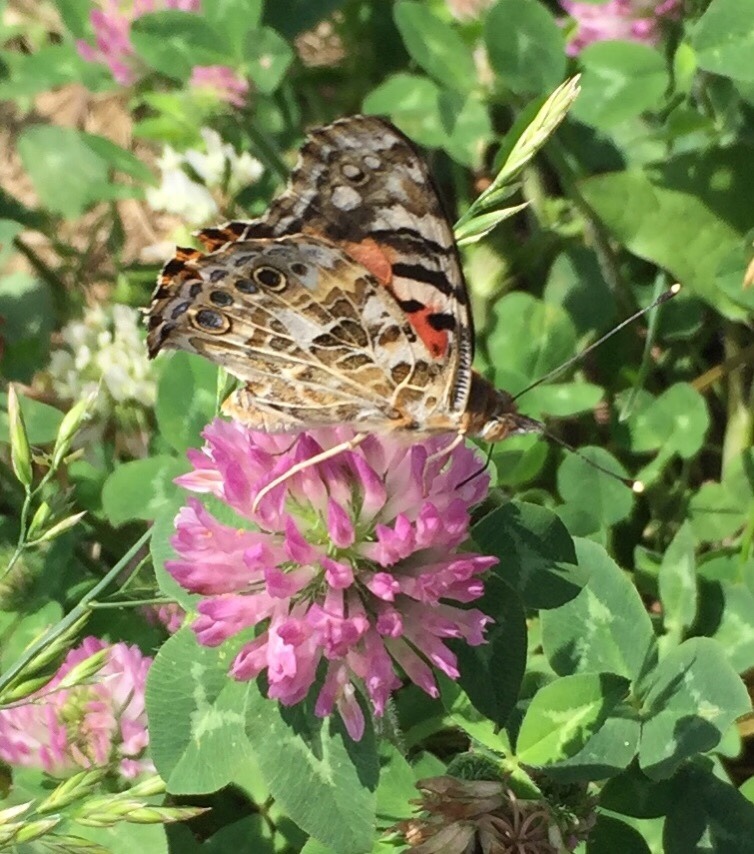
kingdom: Animalia
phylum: Arthropoda
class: Insecta
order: Lepidoptera
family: Nymphalidae
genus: Vanessa
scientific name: Vanessa cardui
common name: Painted lady
